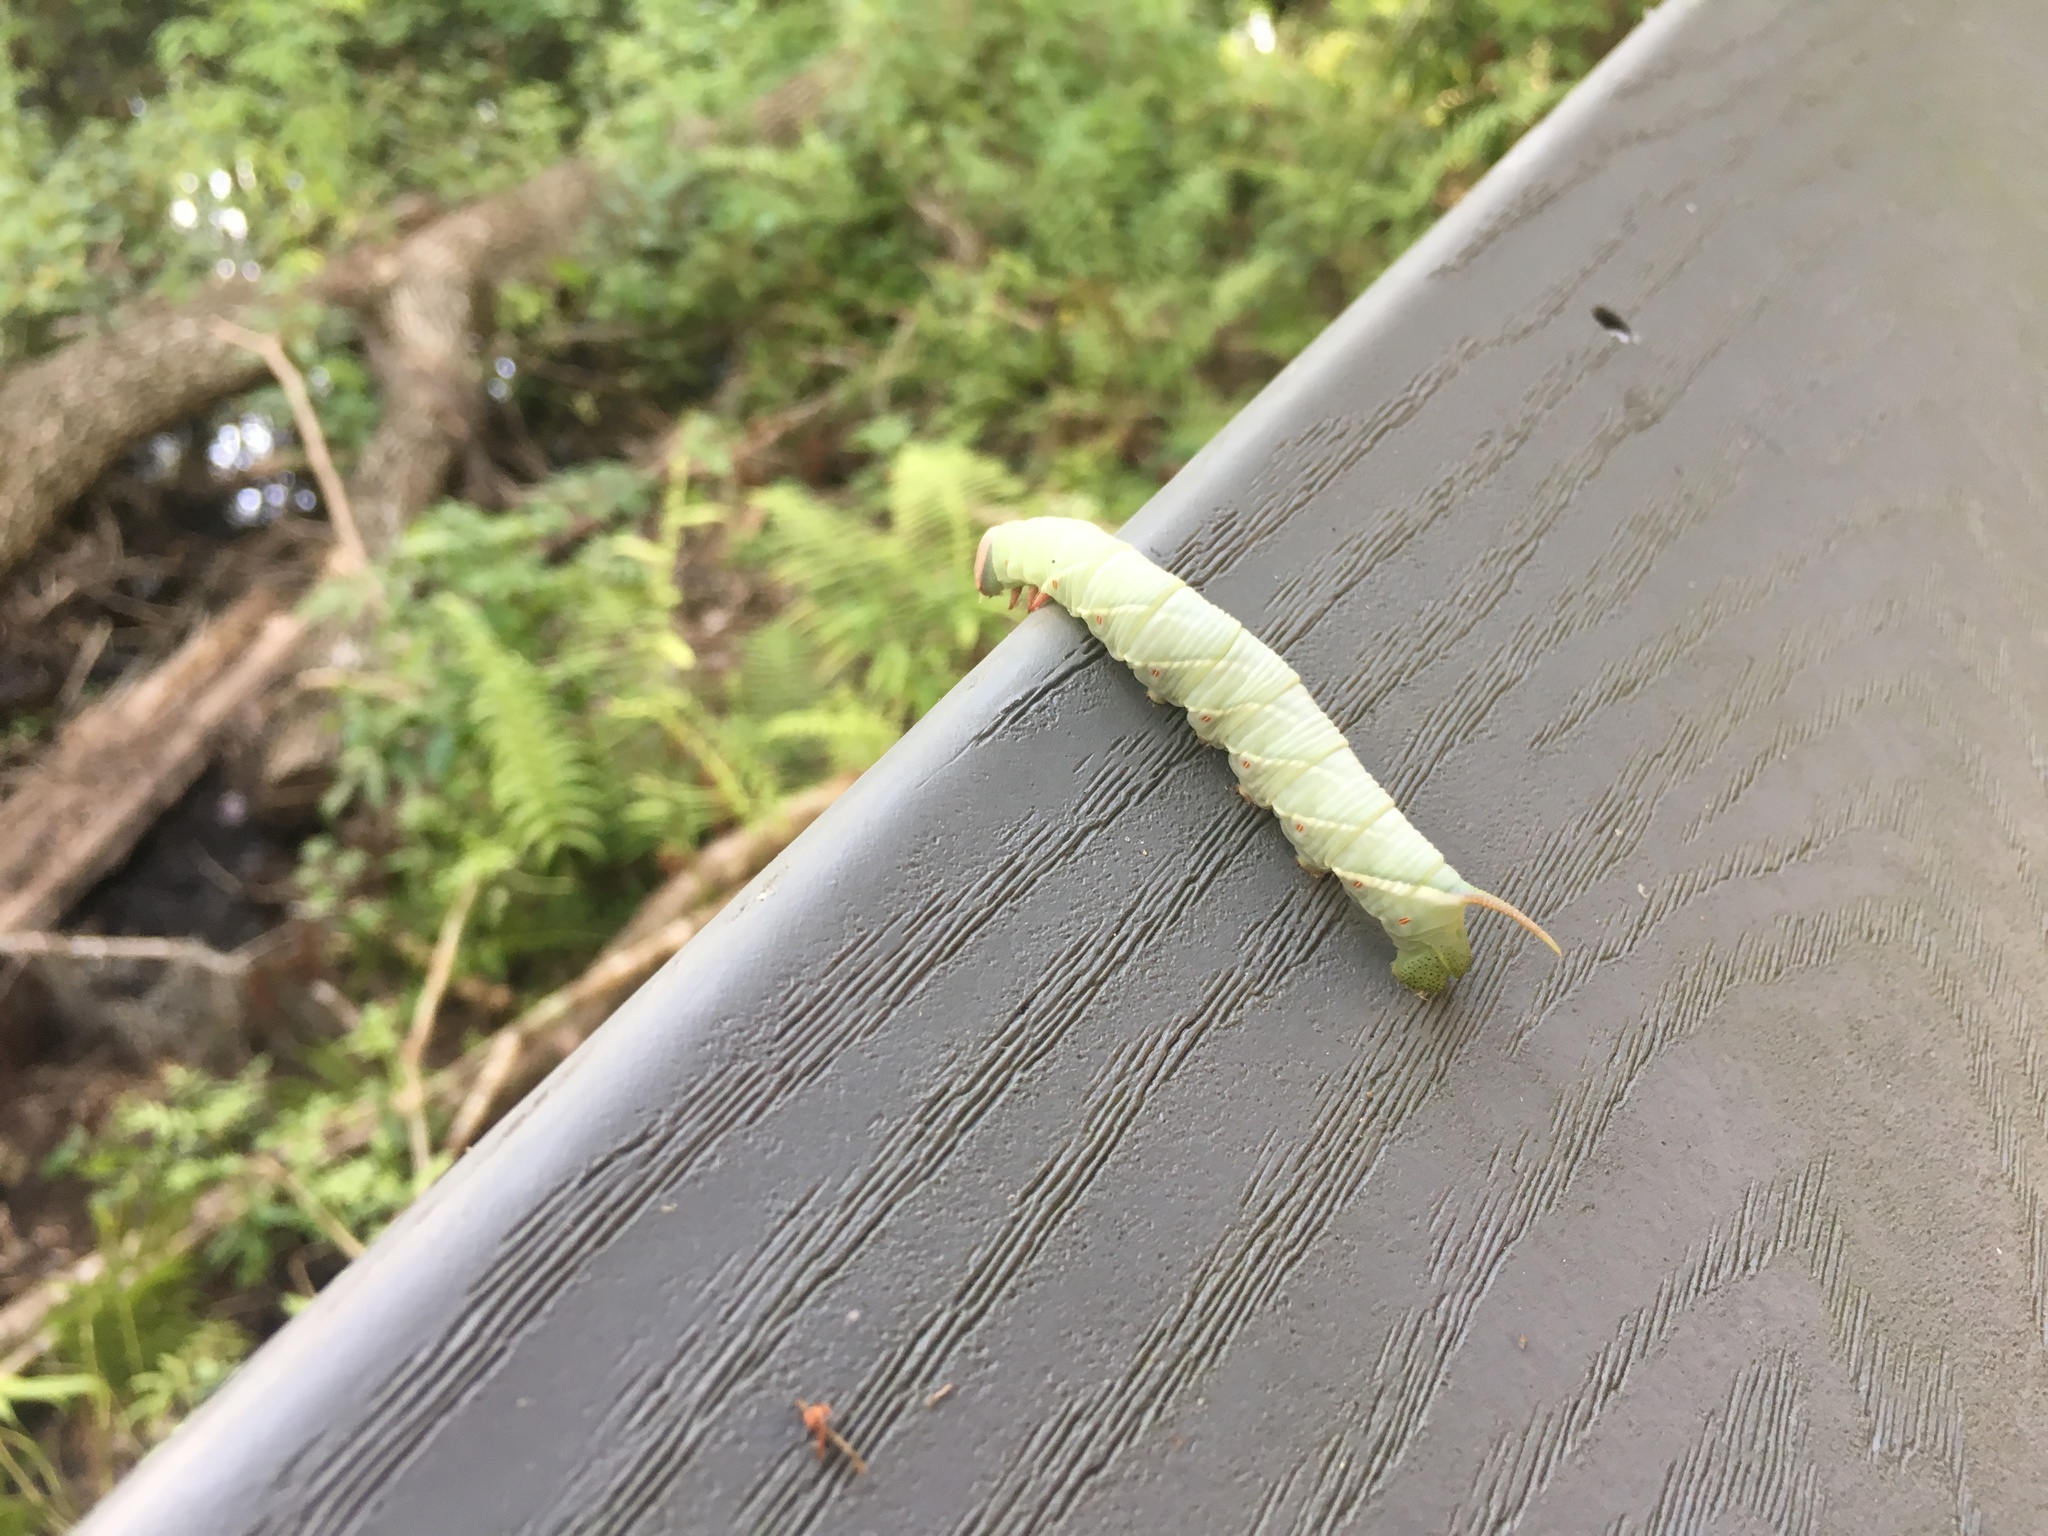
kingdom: Animalia
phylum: Arthropoda
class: Insecta
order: Lepidoptera
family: Sphingidae
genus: Ceratomia
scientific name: Ceratomia undulosa
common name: Waved sphinx
